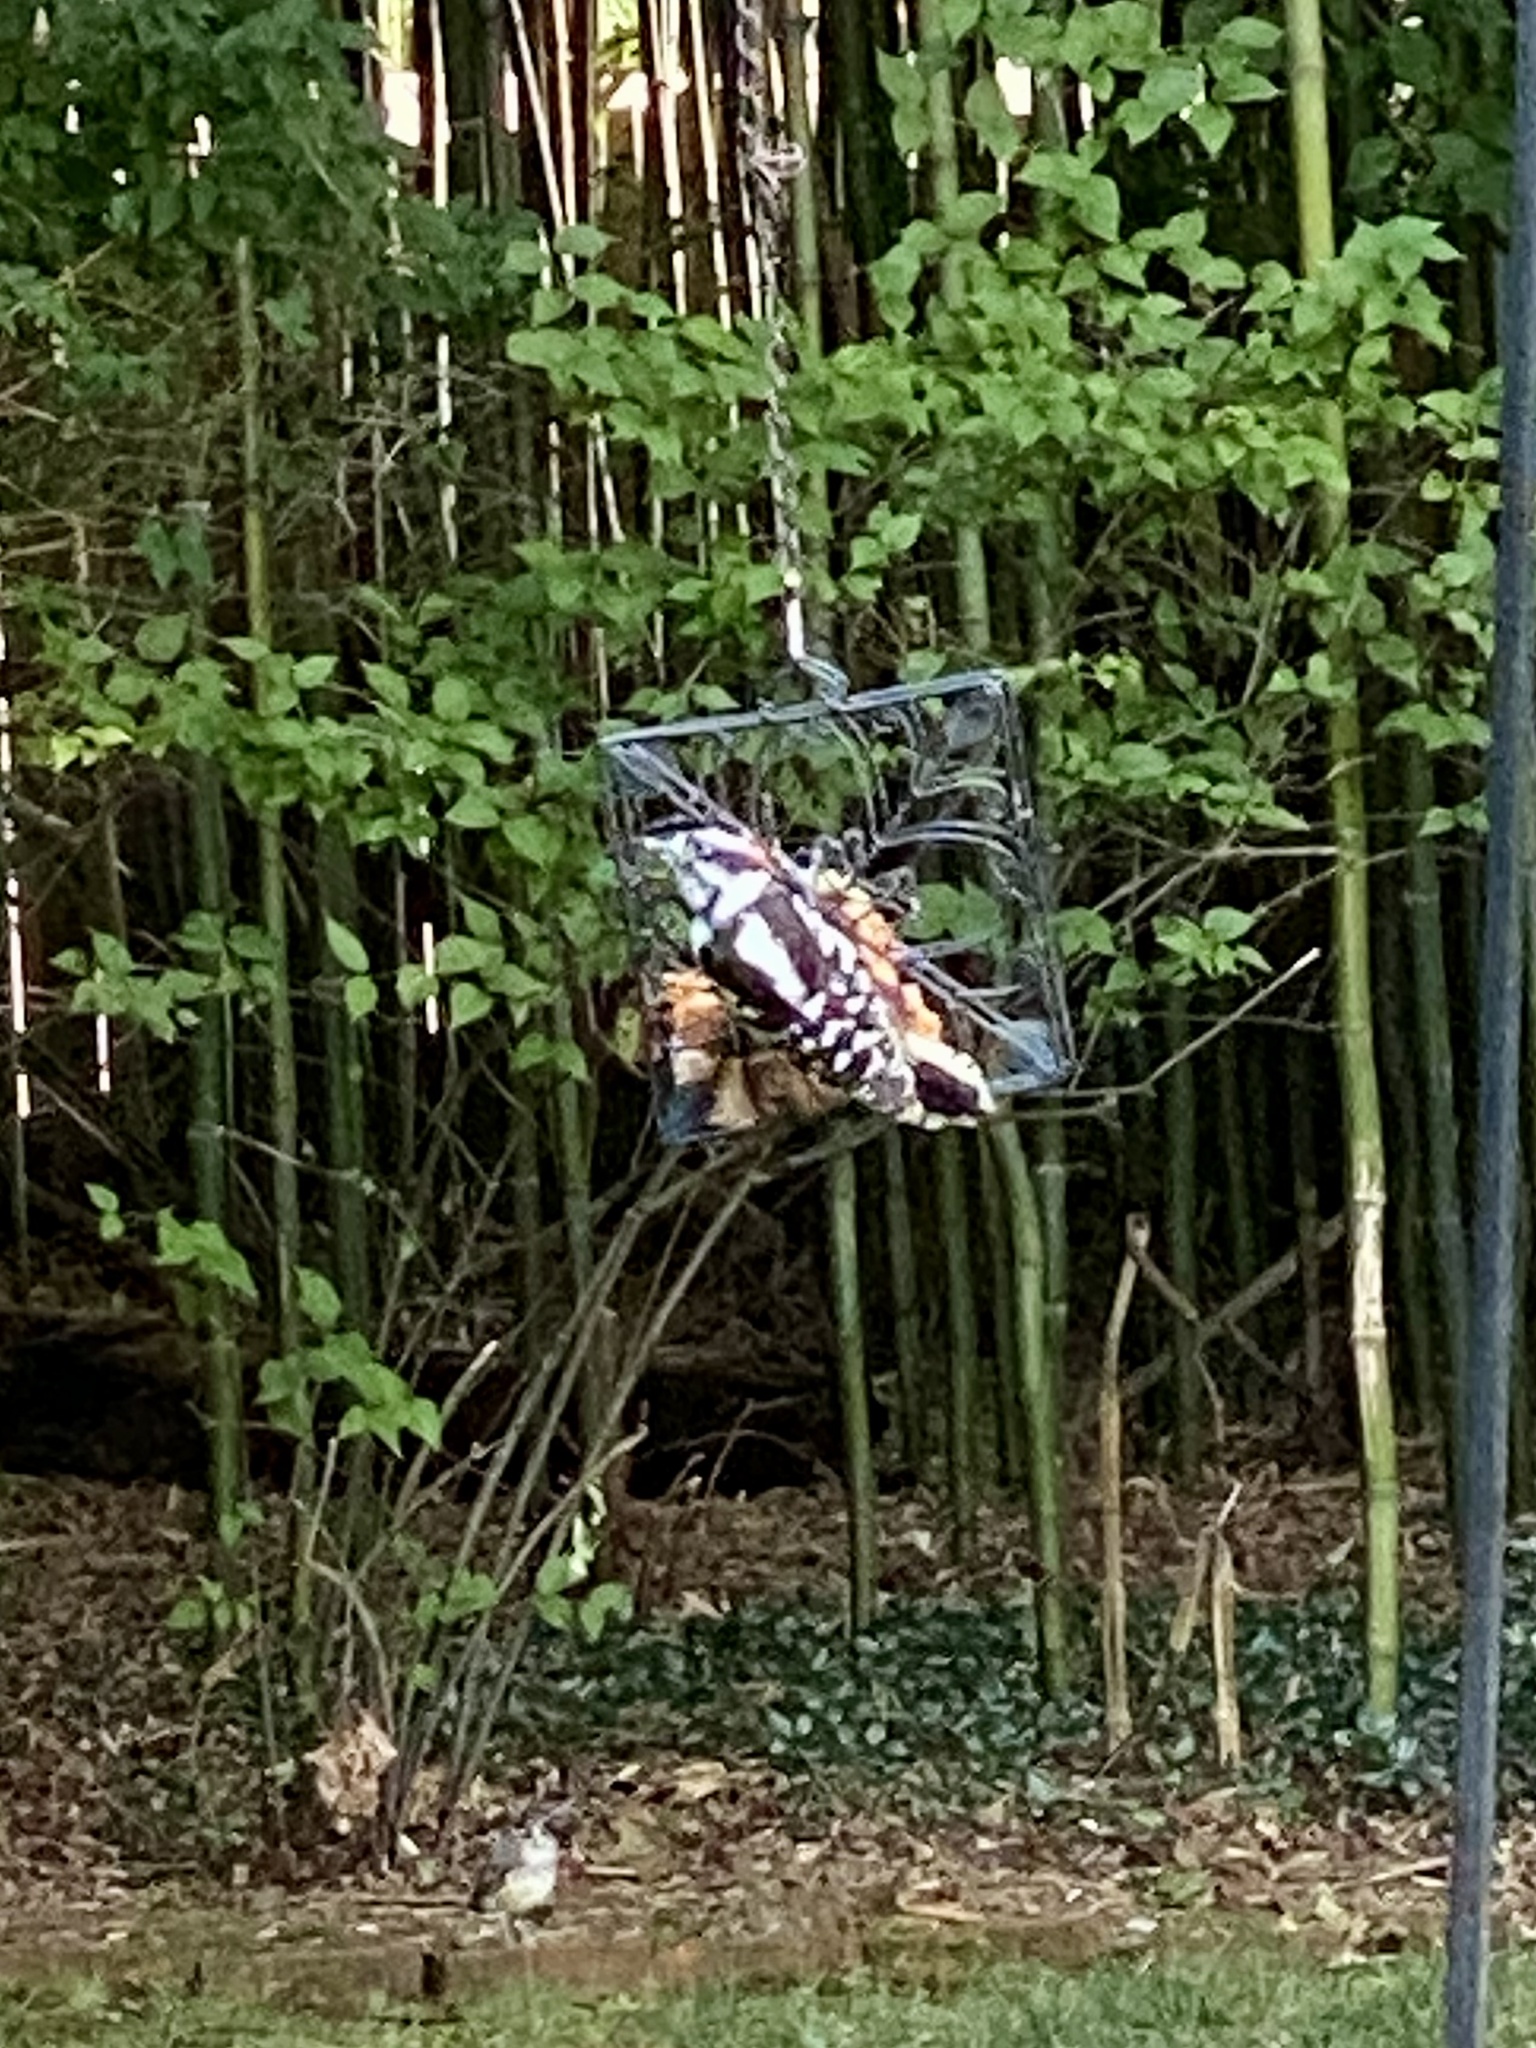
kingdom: Animalia
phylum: Chordata
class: Aves
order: Piciformes
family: Picidae
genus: Dryobates
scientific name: Dryobates pubescens
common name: Downy woodpecker
